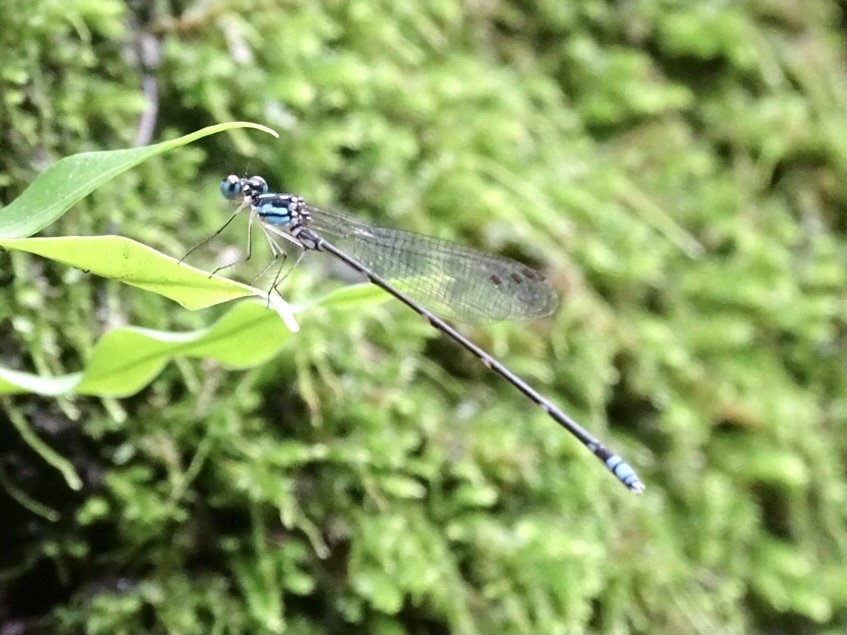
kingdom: Animalia
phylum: Arthropoda
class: Insecta
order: Odonata
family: Platycnemididae
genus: Coeliccia
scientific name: Coeliccia cyanomelas
